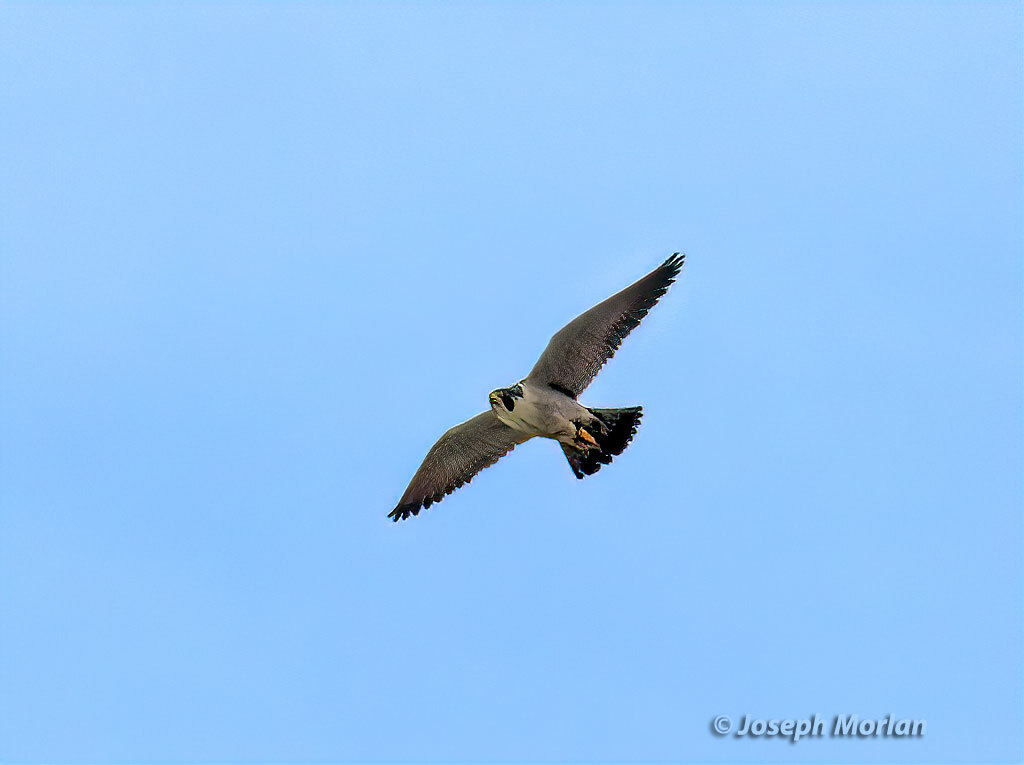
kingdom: Animalia
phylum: Chordata
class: Aves
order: Falconiformes
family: Falconidae
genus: Falco
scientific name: Falco peregrinus
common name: Peregrine falcon
